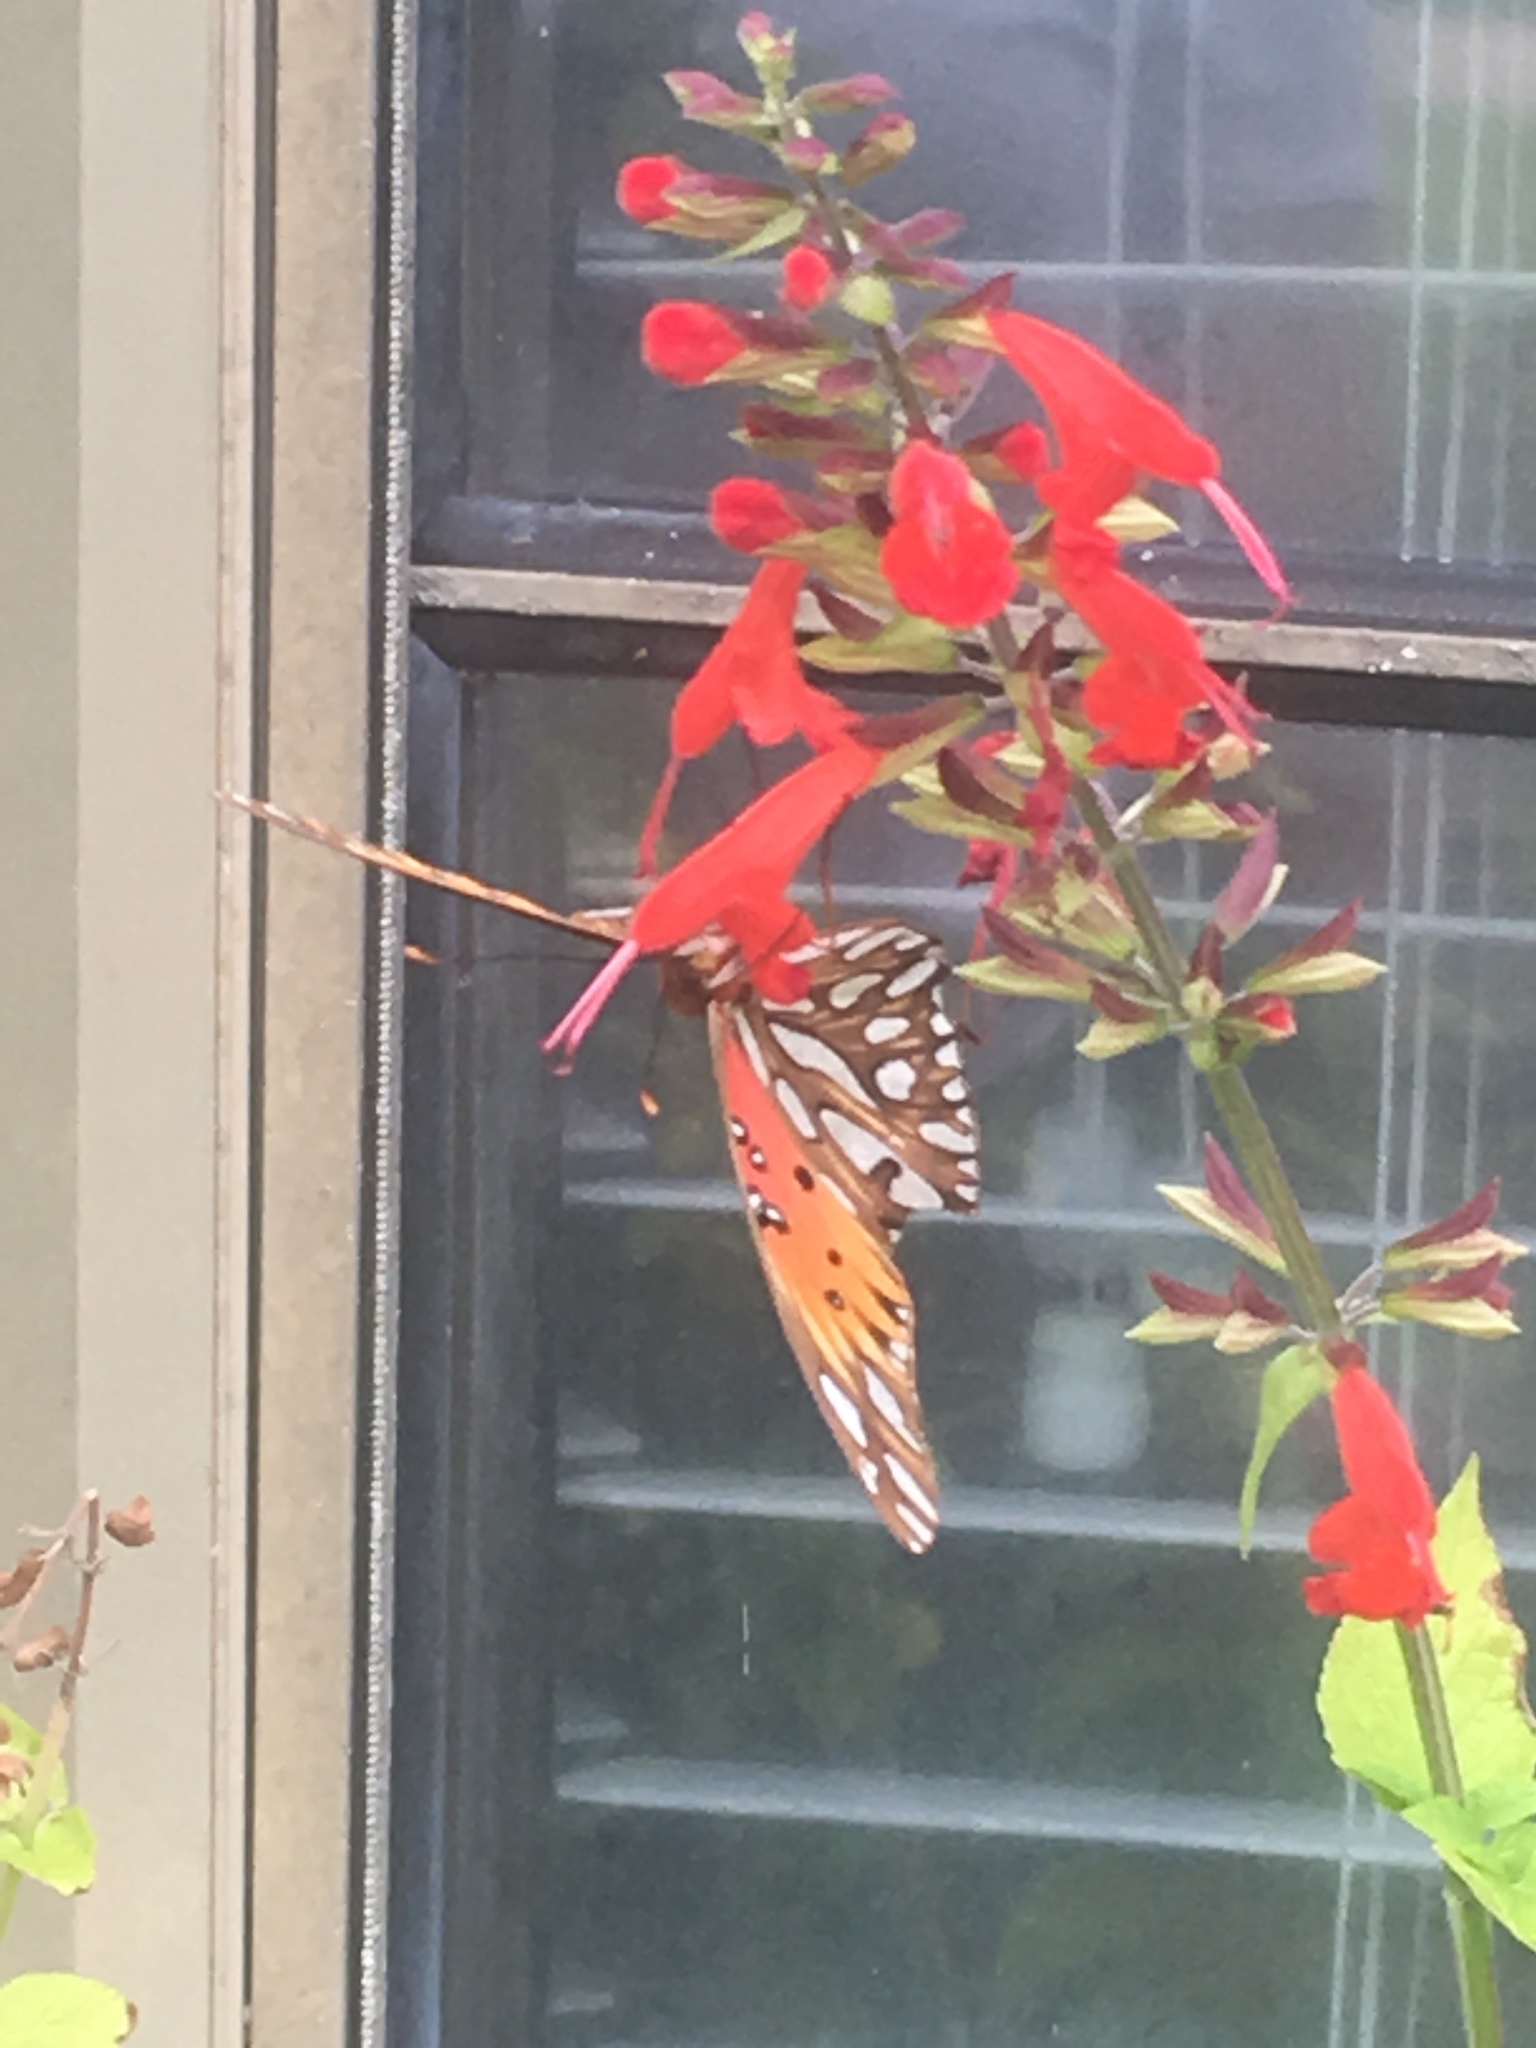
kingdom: Animalia
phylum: Arthropoda
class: Insecta
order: Lepidoptera
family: Nymphalidae
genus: Dione
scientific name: Dione vanillae
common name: Gulf fritillary
